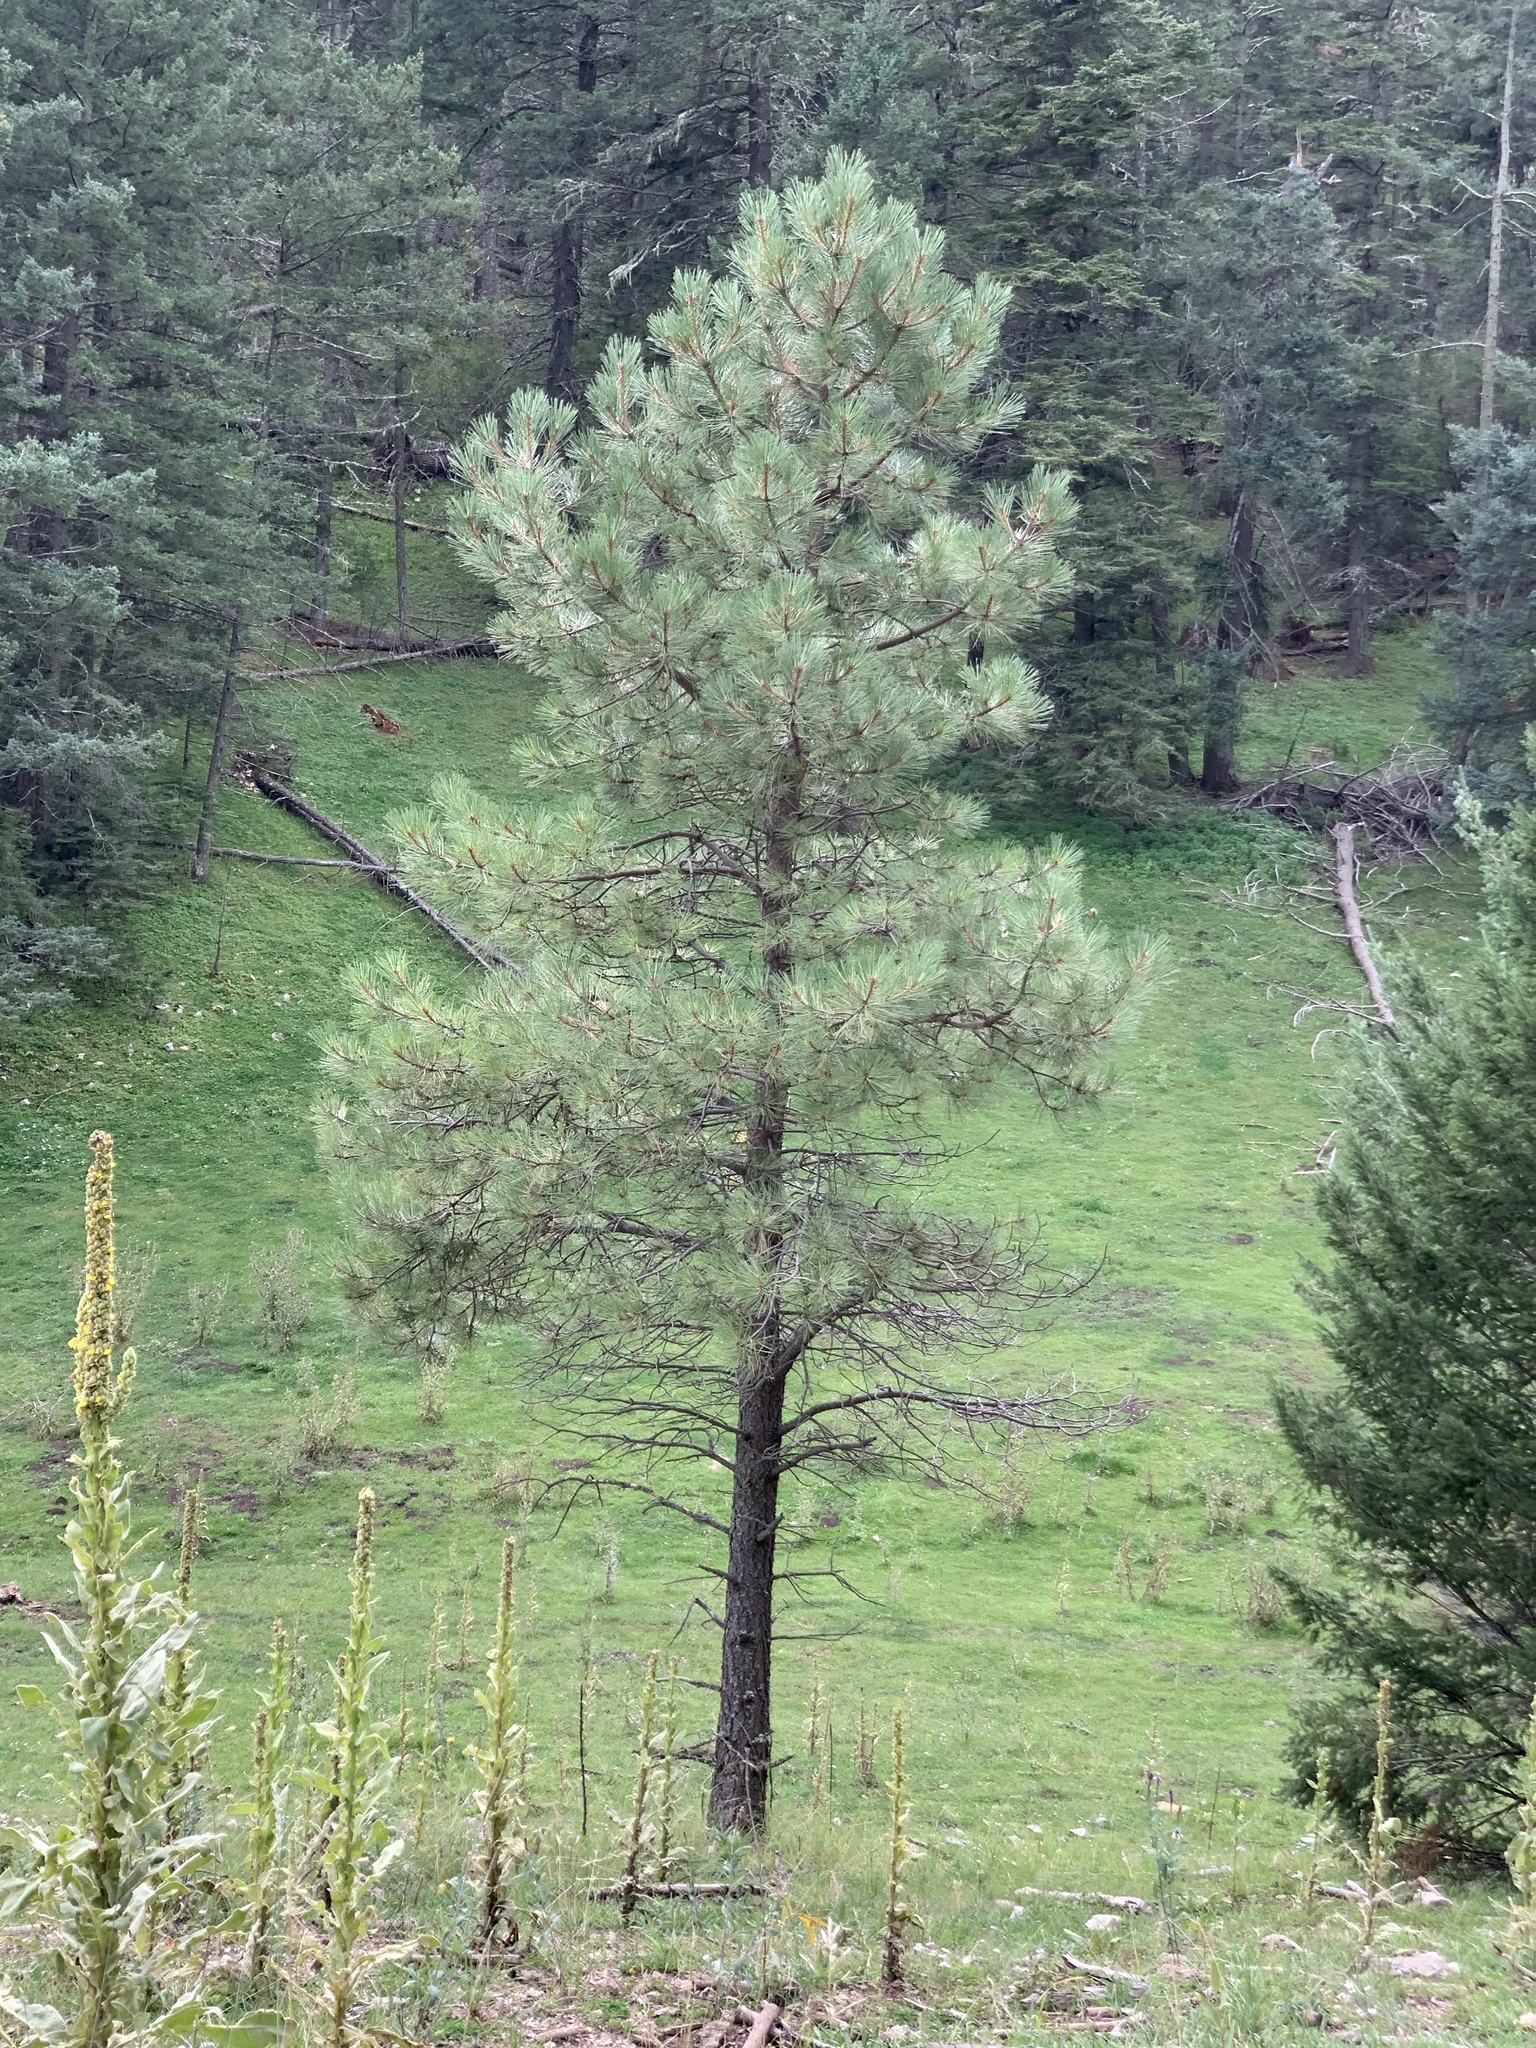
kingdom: Plantae
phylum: Tracheophyta
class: Pinopsida
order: Pinales
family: Pinaceae
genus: Pinus
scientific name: Pinus ponderosa
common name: Western yellow-pine
